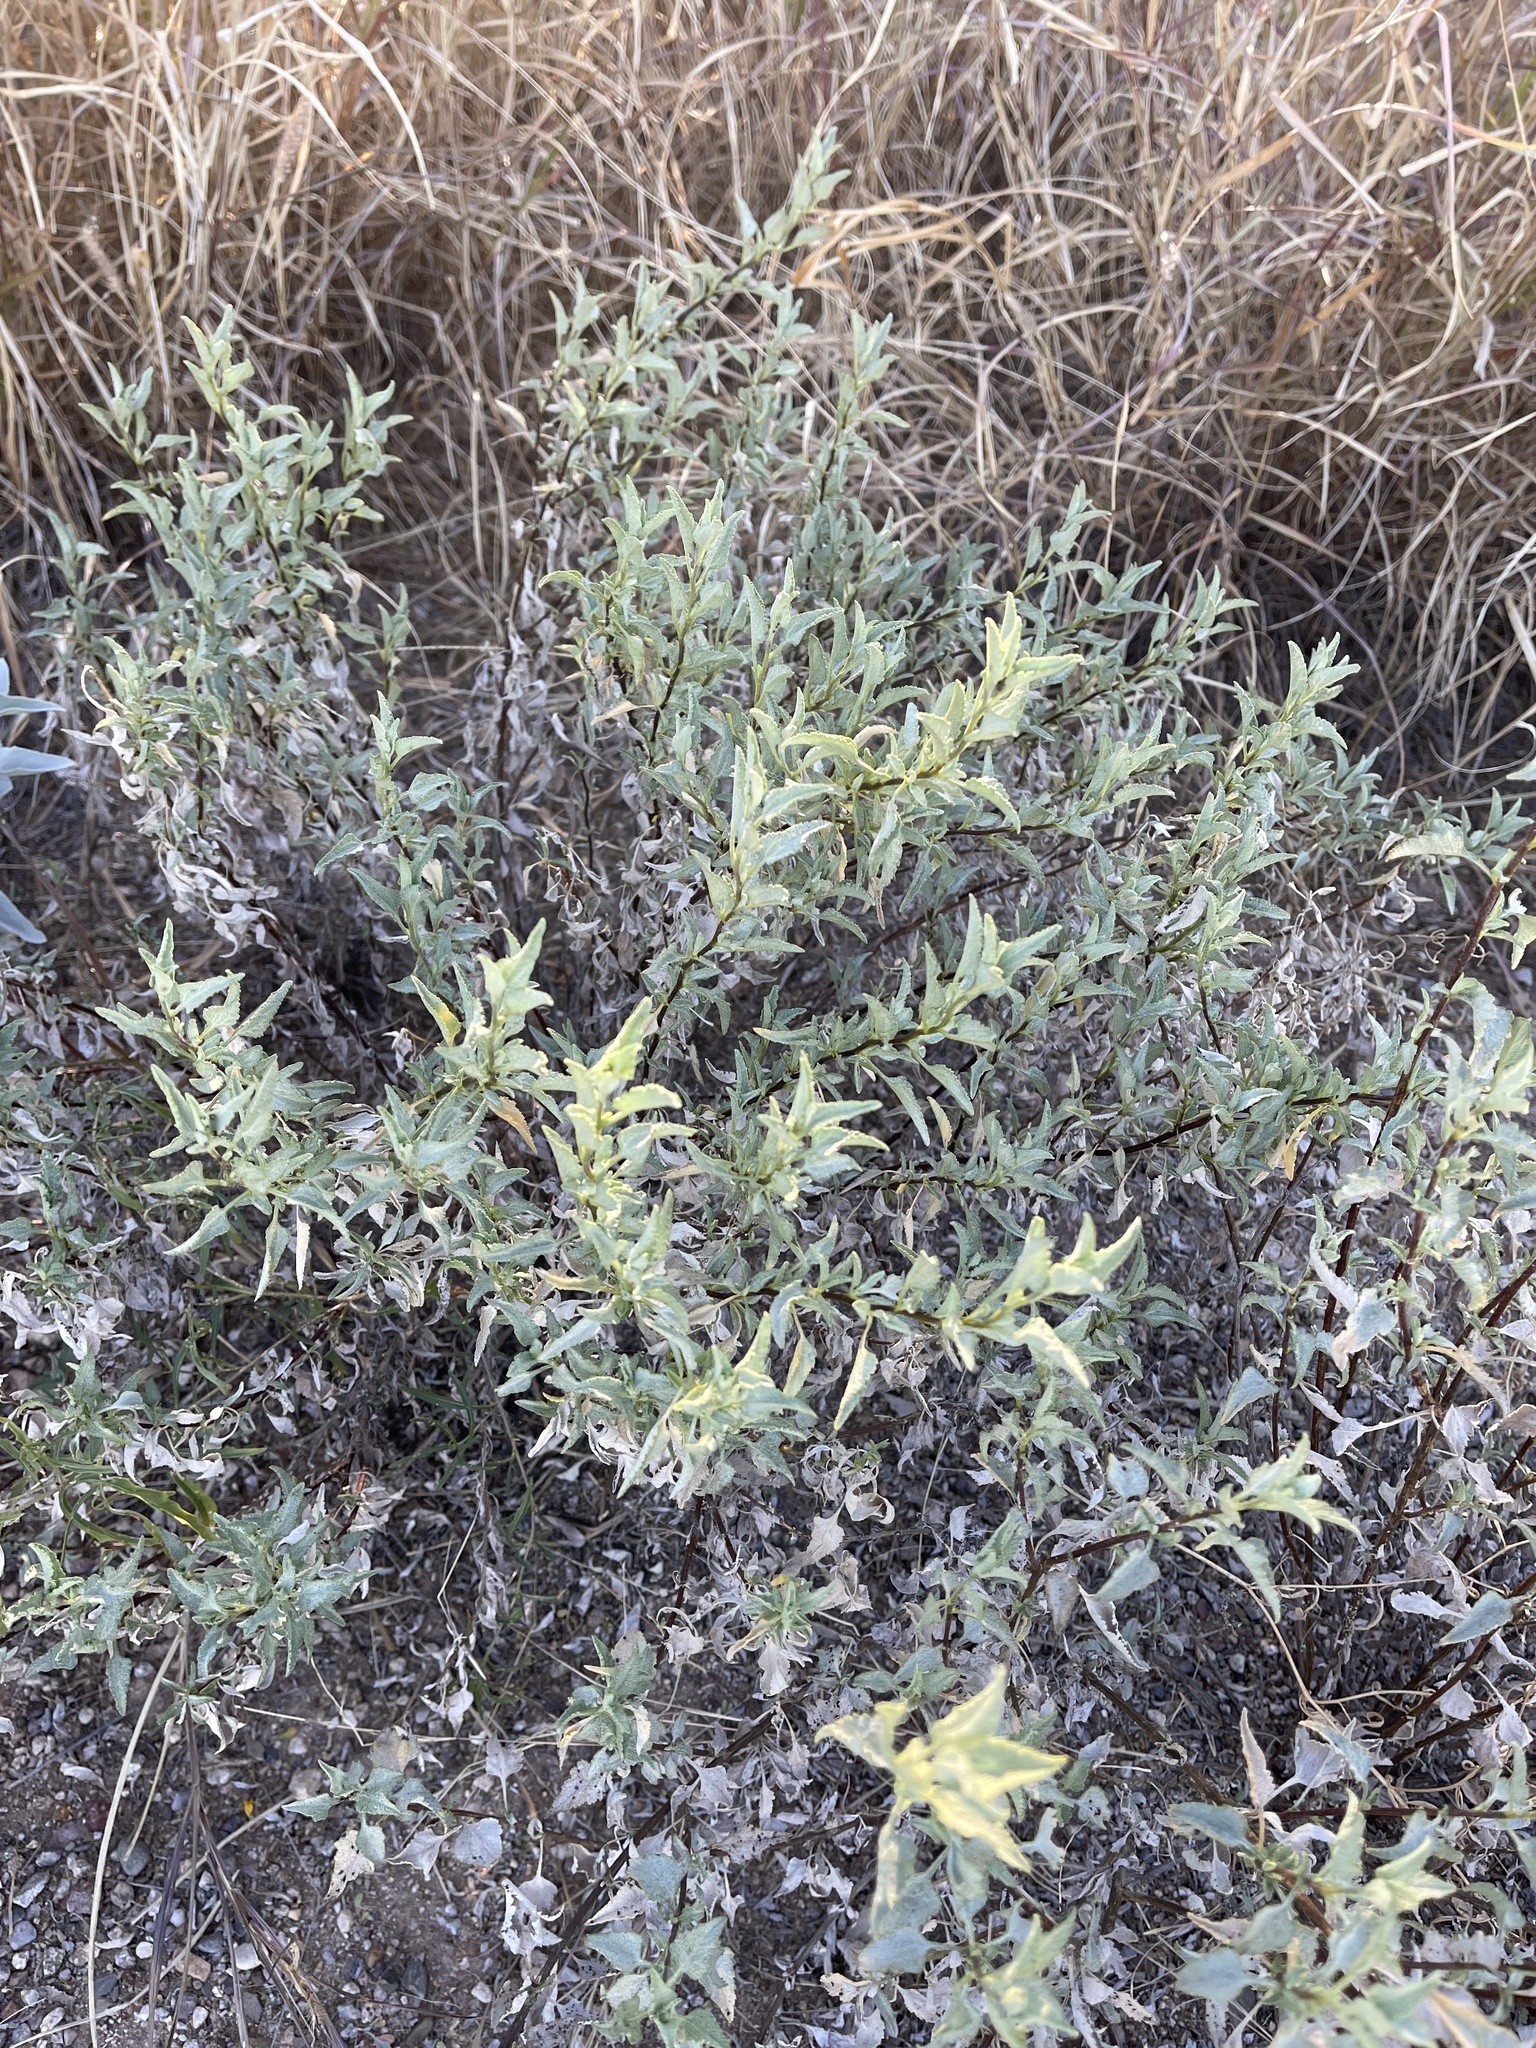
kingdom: Plantae
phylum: Tracheophyta
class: Magnoliopsida
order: Asterales
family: Asteraceae
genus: Ambrosia
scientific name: Ambrosia deltoidea
